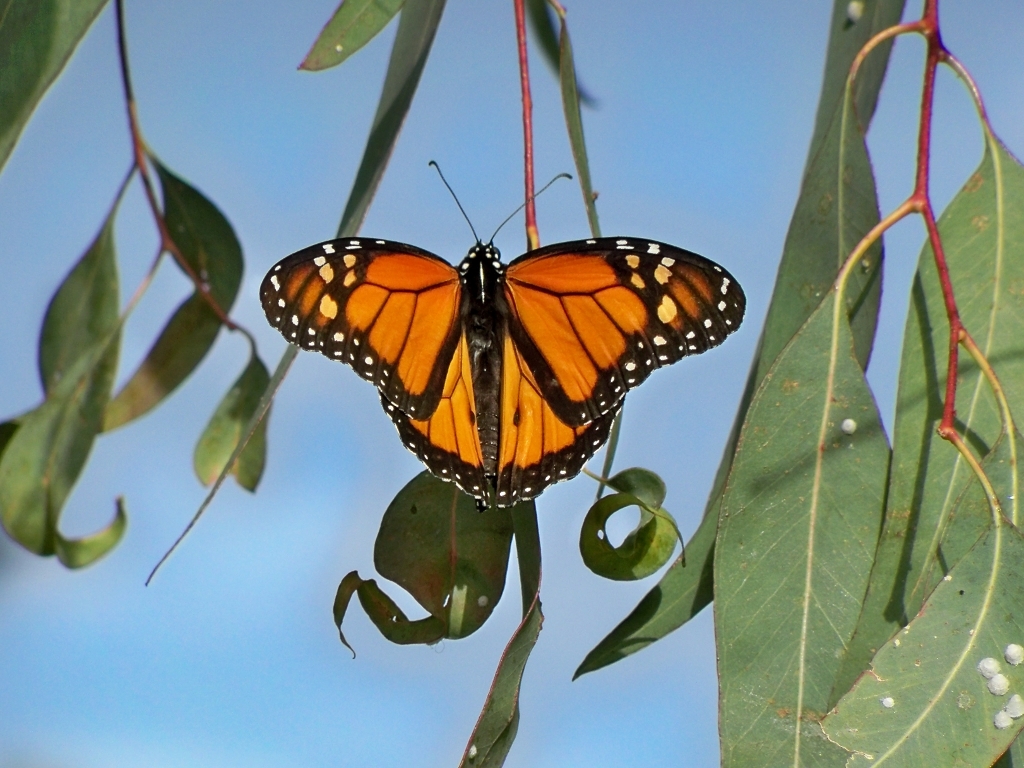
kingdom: Animalia
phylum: Arthropoda
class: Insecta
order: Lepidoptera
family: Nymphalidae
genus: Danaus
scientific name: Danaus plexippus
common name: Monarch
